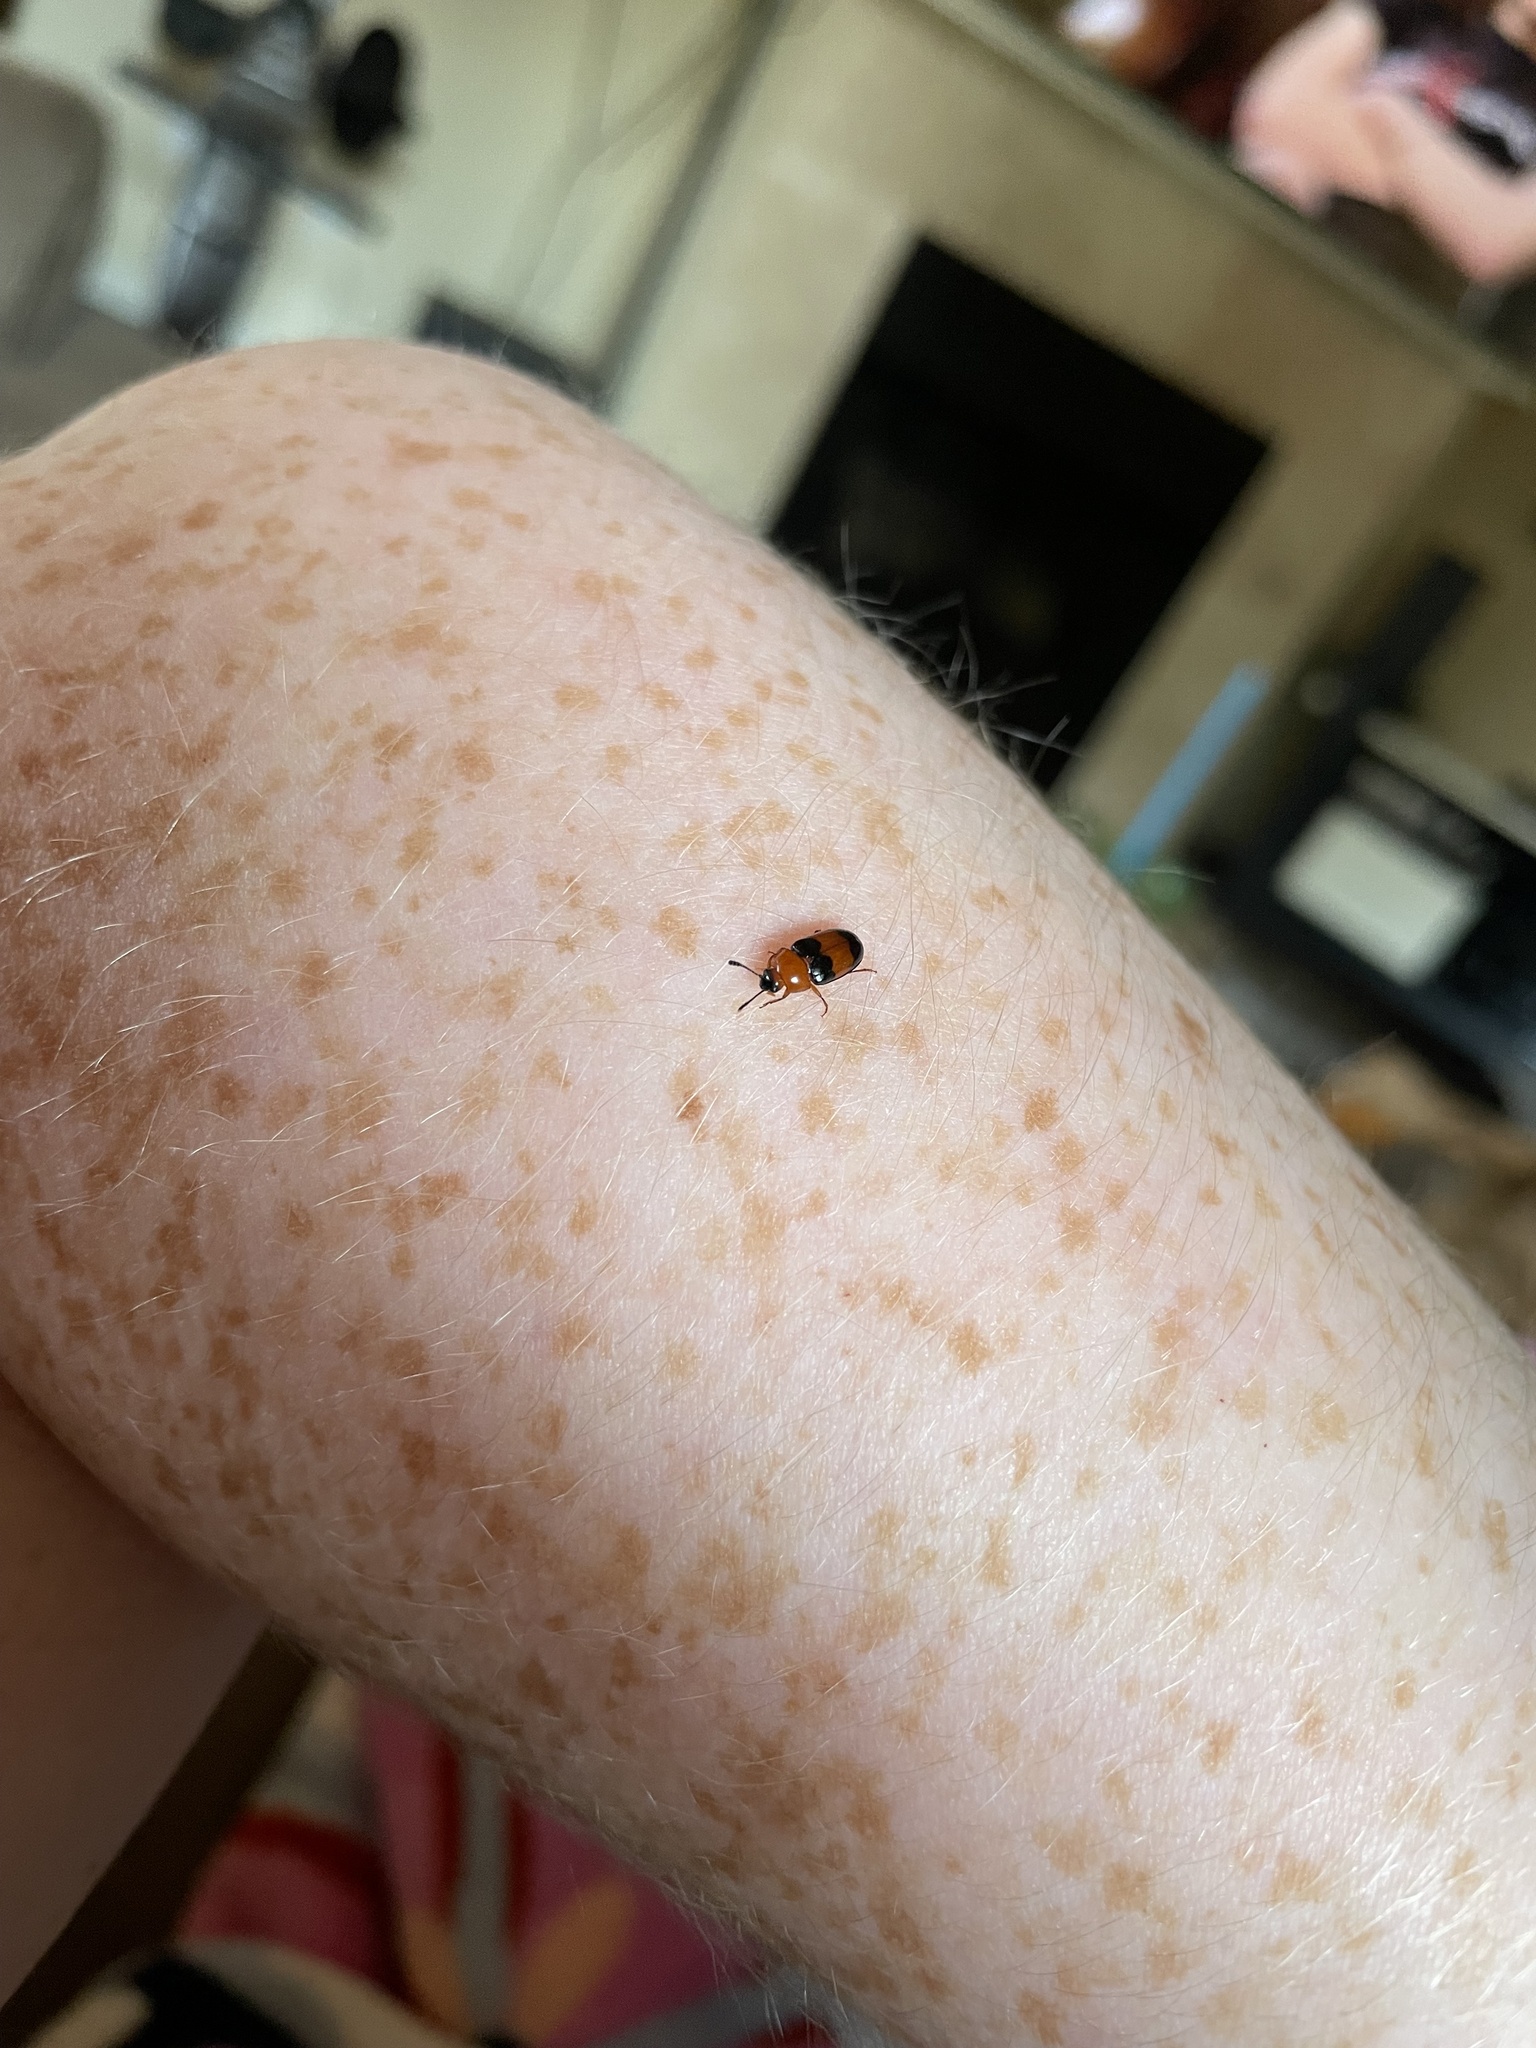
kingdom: Animalia
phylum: Arthropoda
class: Insecta
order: Coleoptera
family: Erotylidae
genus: Triplax
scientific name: Triplax festiva
